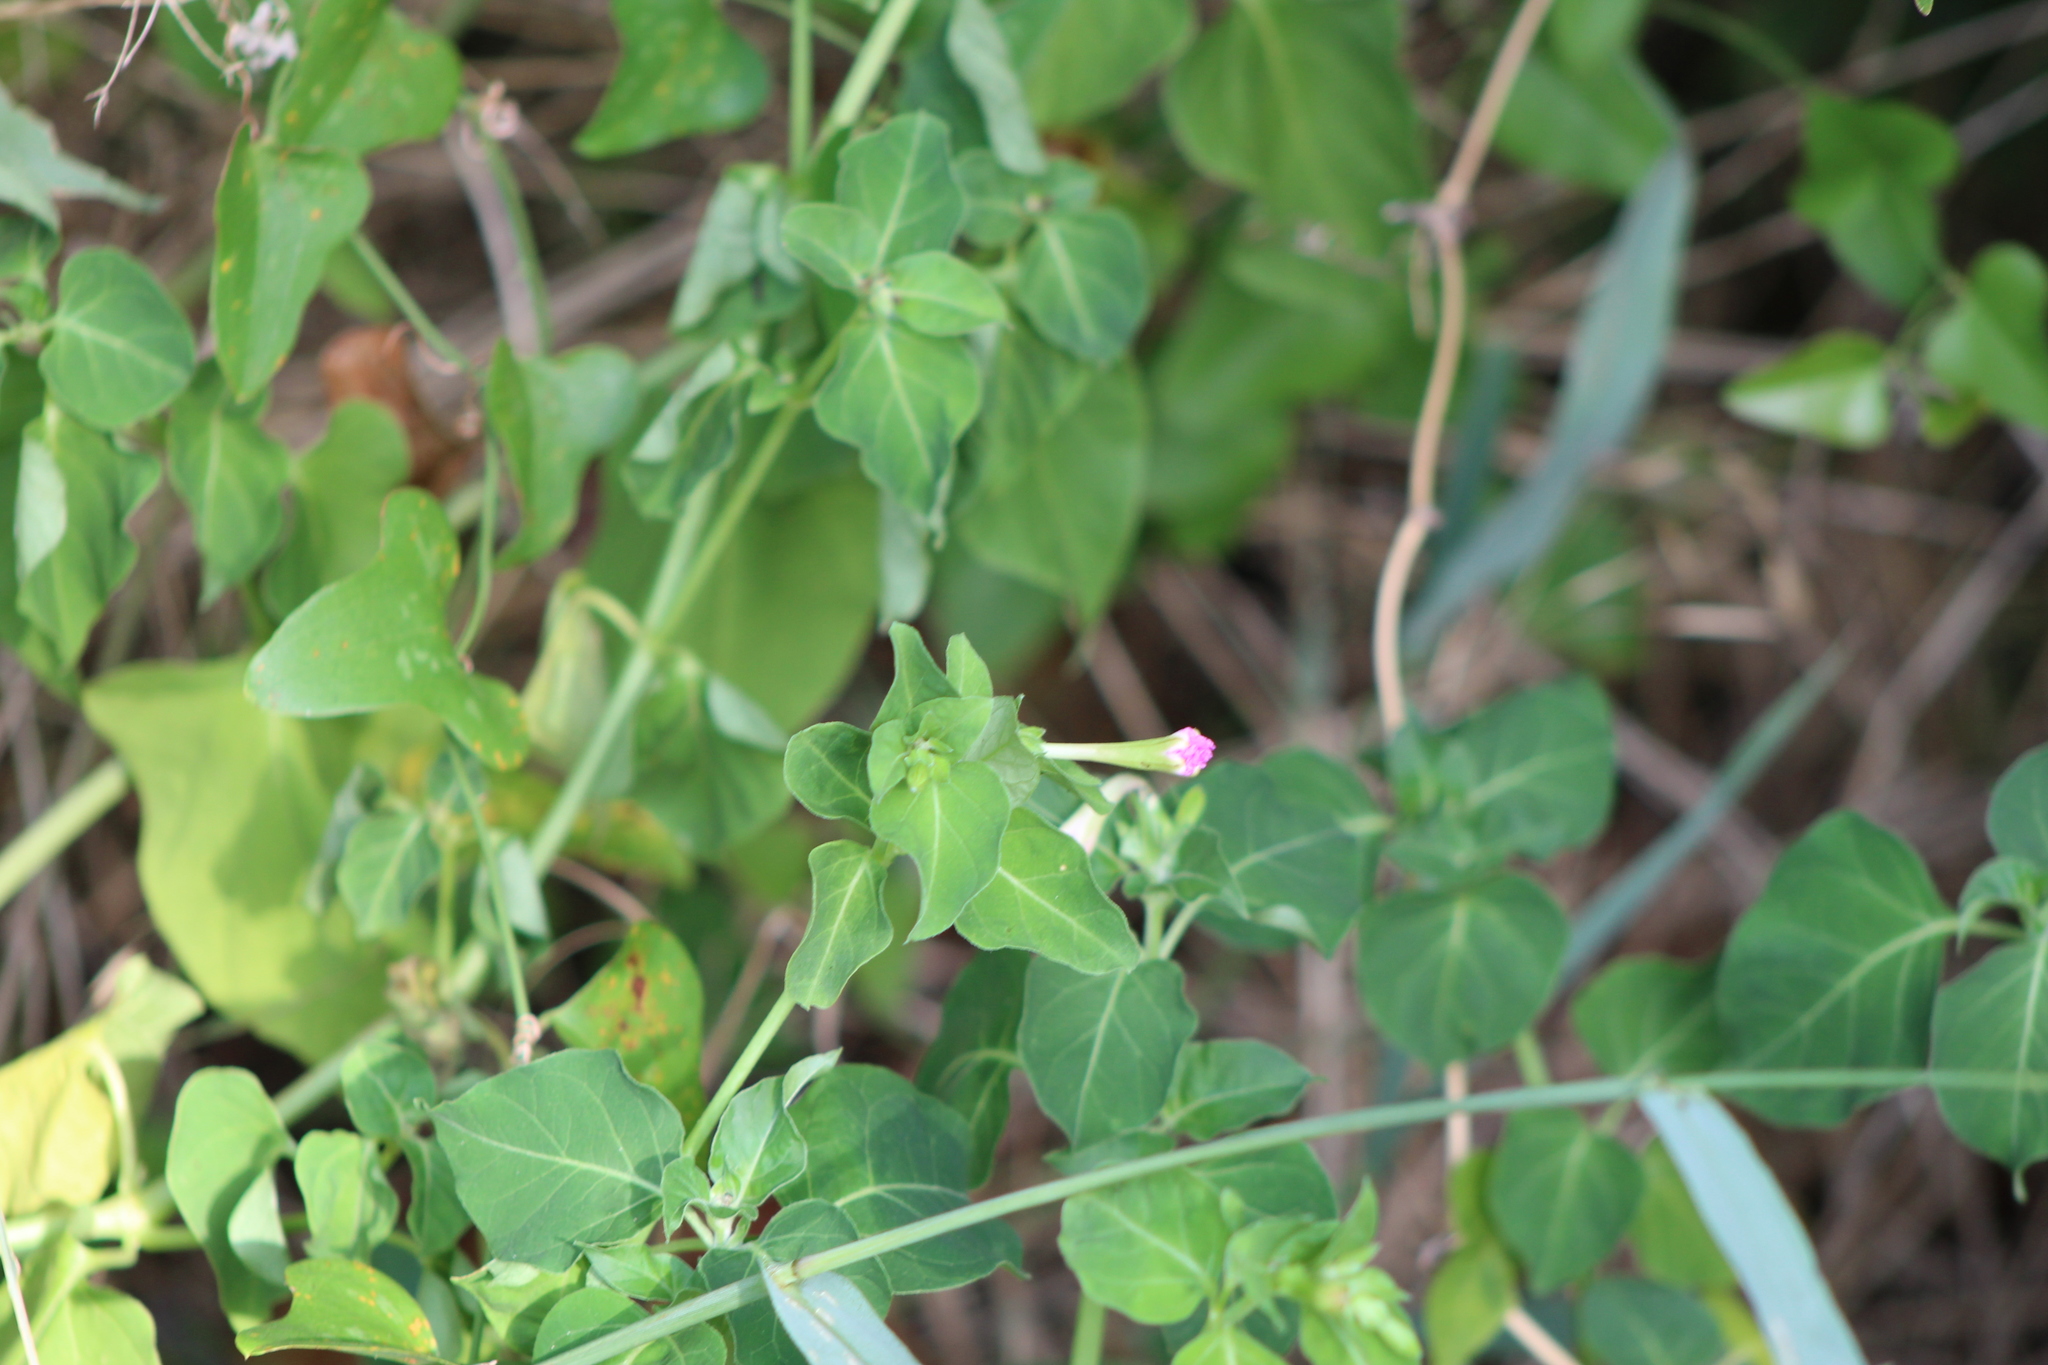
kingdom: Plantae
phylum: Tracheophyta
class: Magnoliopsida
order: Caryophyllales
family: Nyctaginaceae
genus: Mirabilis
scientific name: Mirabilis jalapa
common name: Marvel-of-peru
